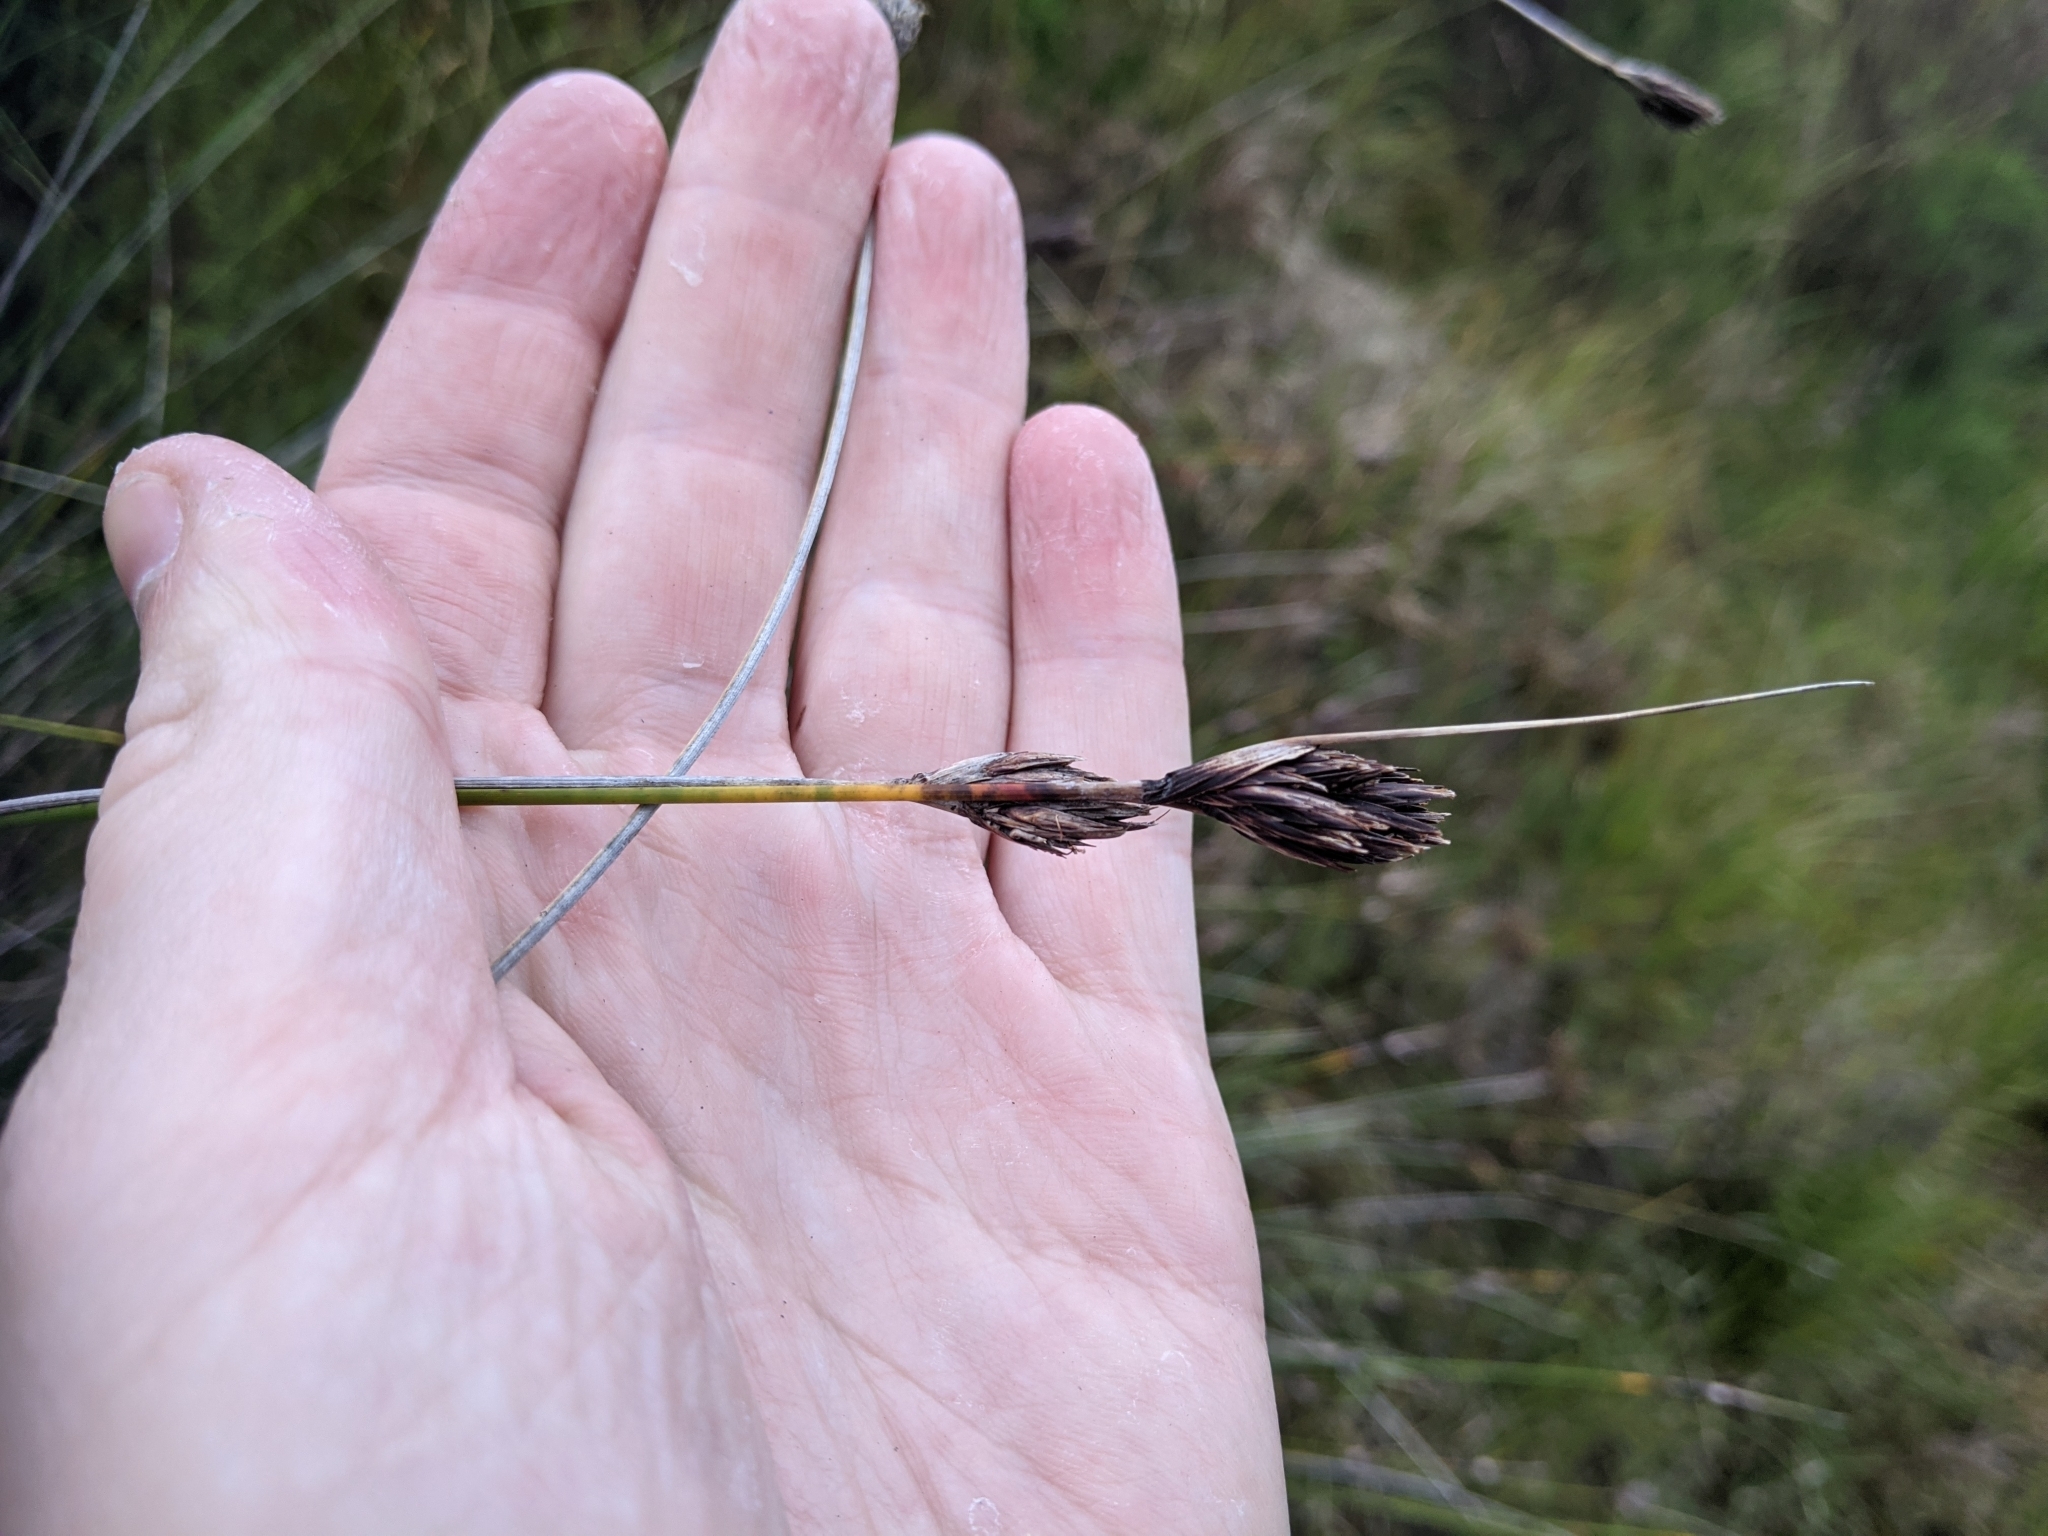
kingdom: Plantae
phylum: Tracheophyta
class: Liliopsida
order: Poales
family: Cyperaceae
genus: Schoenus
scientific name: Schoenus nigricans
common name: Black bog-rush
